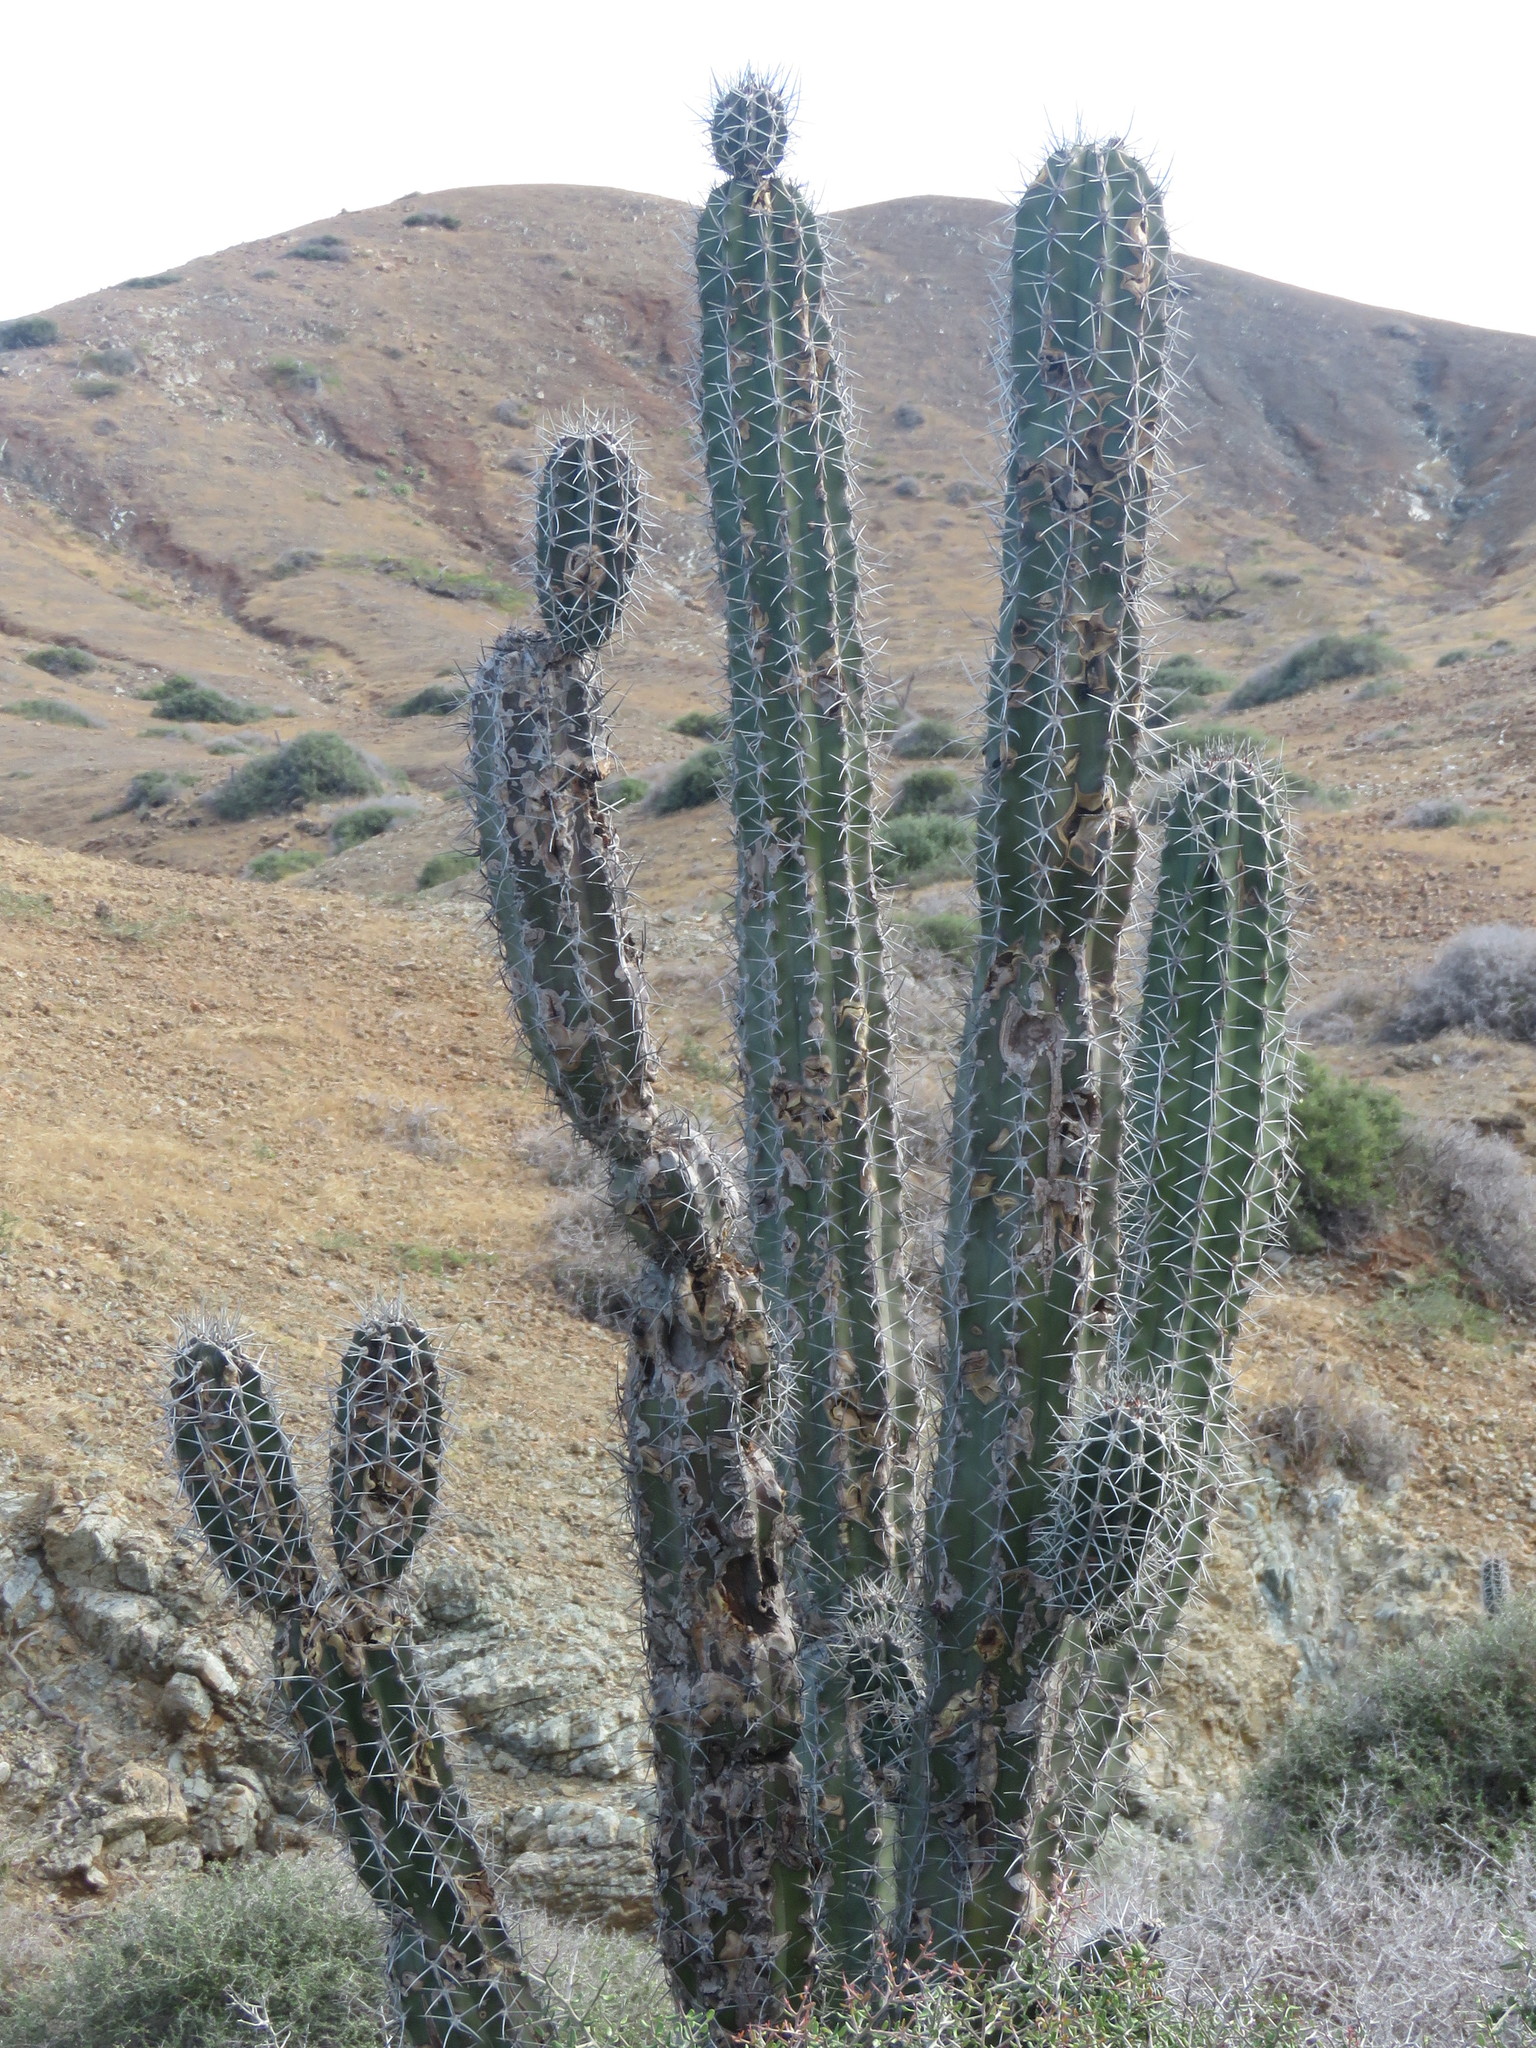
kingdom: Plantae
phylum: Tracheophyta
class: Magnoliopsida
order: Caryophyllales
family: Cactaceae
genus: Stenocereus
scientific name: Stenocereus griseus
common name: Tall candelabra cactus
